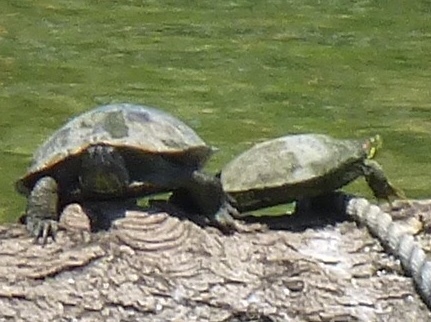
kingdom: Animalia
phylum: Chordata
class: Testudines
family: Emydidae
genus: Trachemys
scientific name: Trachemys scripta
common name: Slider
